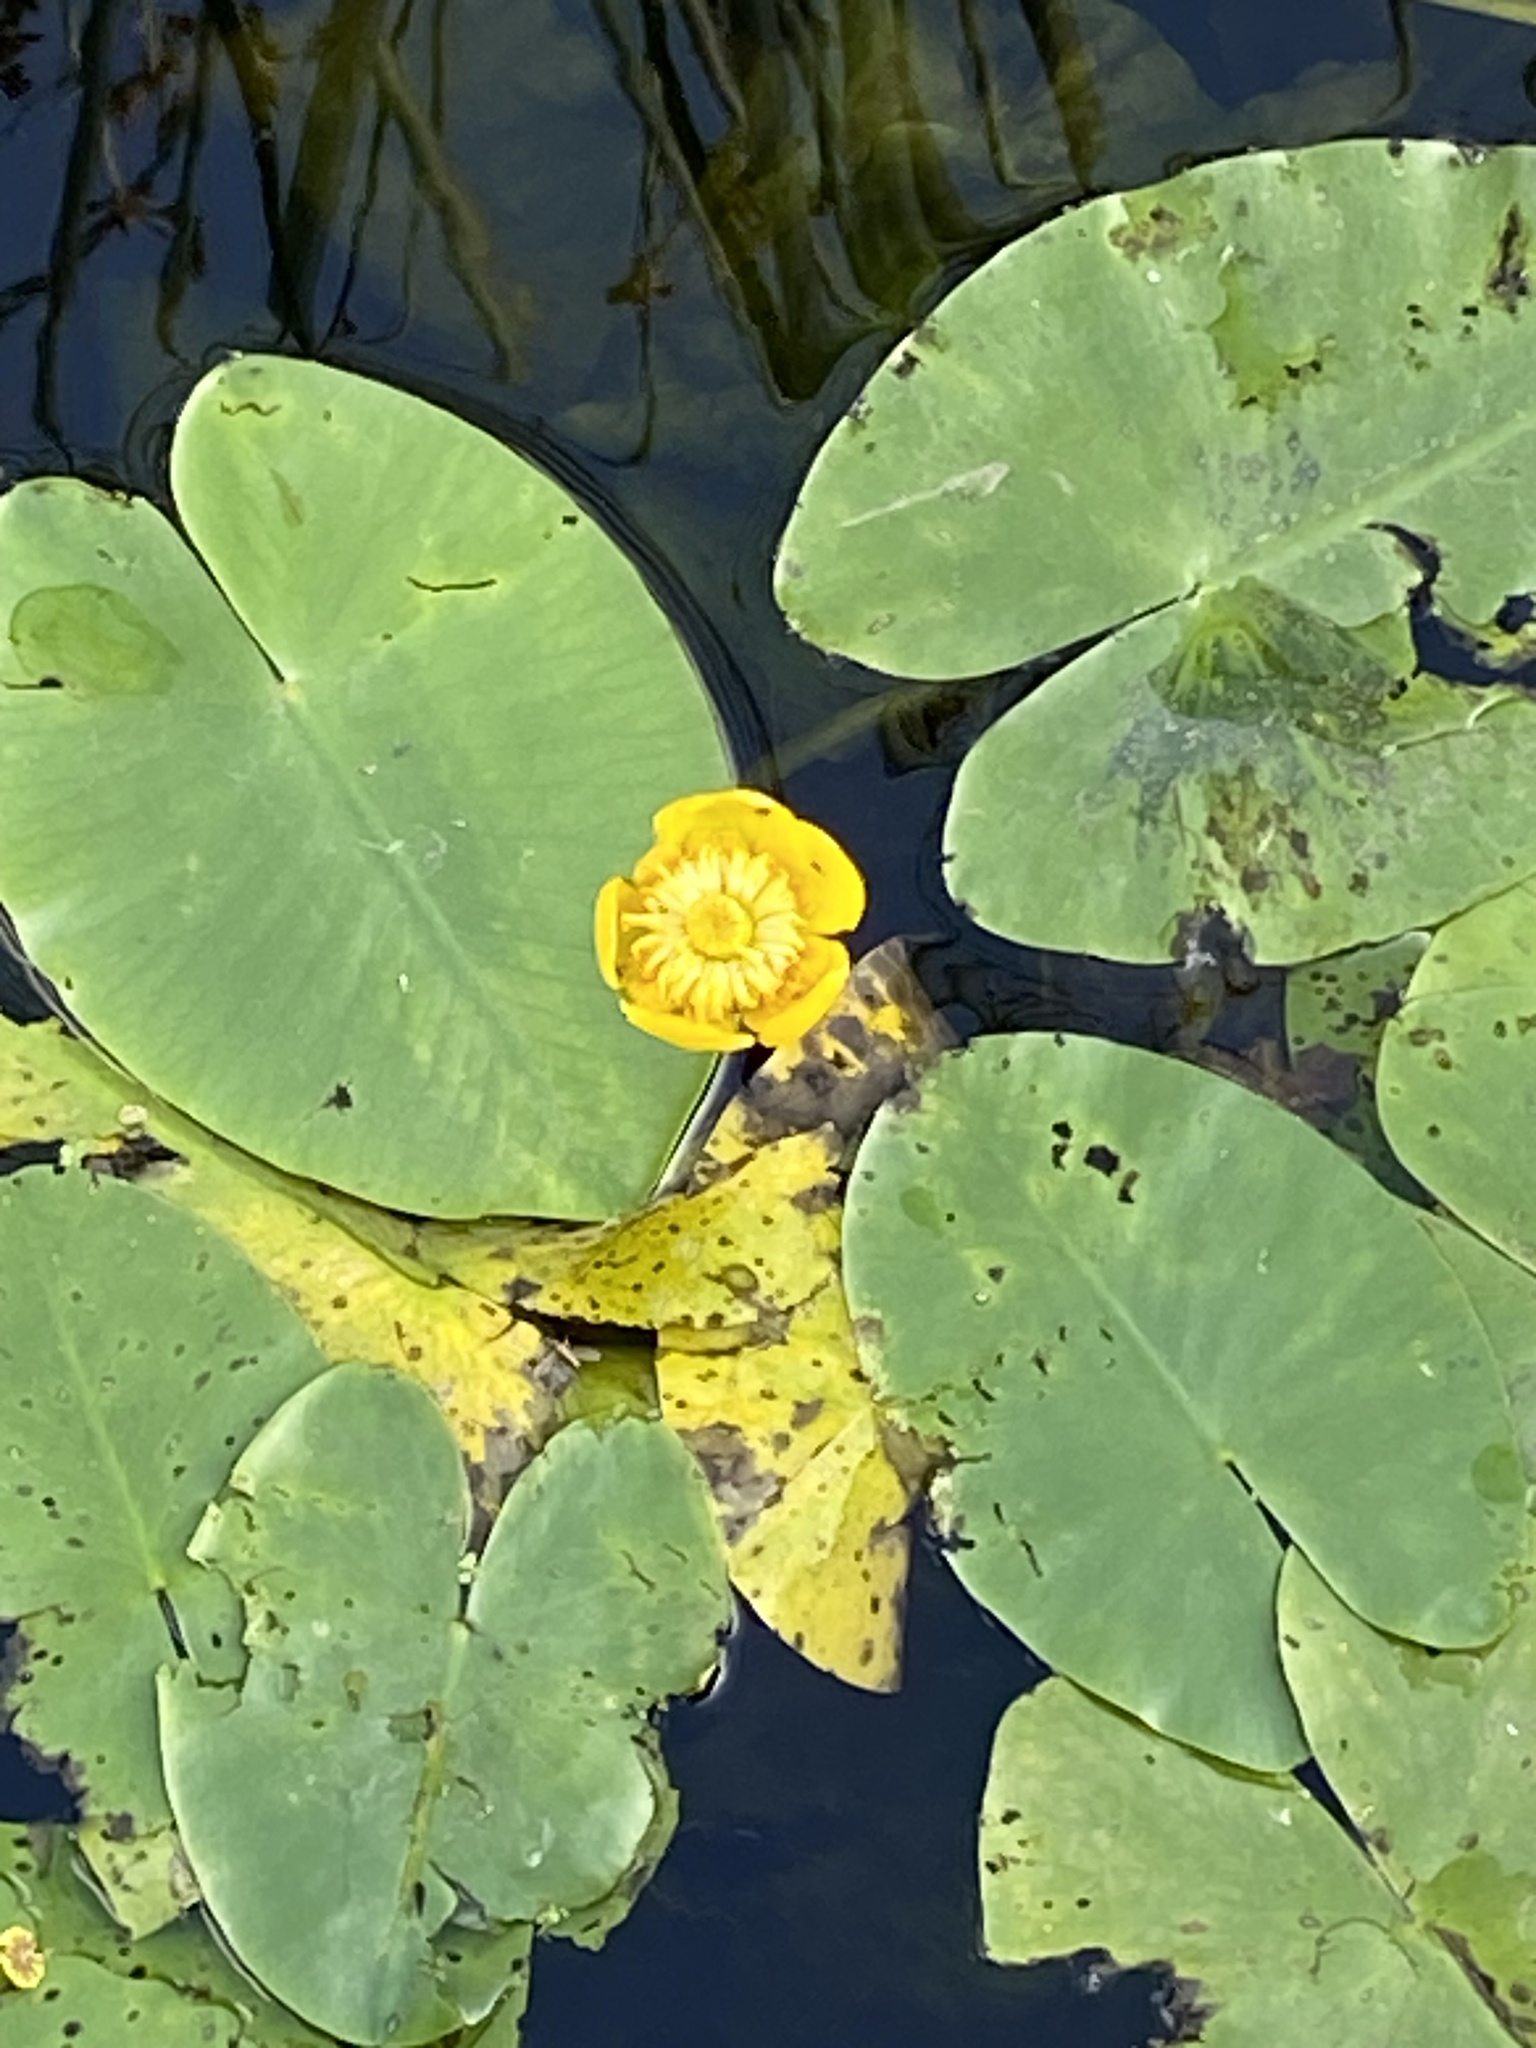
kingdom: Plantae
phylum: Tracheophyta
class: Magnoliopsida
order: Nymphaeales
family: Nymphaeaceae
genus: Nuphar
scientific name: Nuphar lutea
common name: Yellow water-lily
